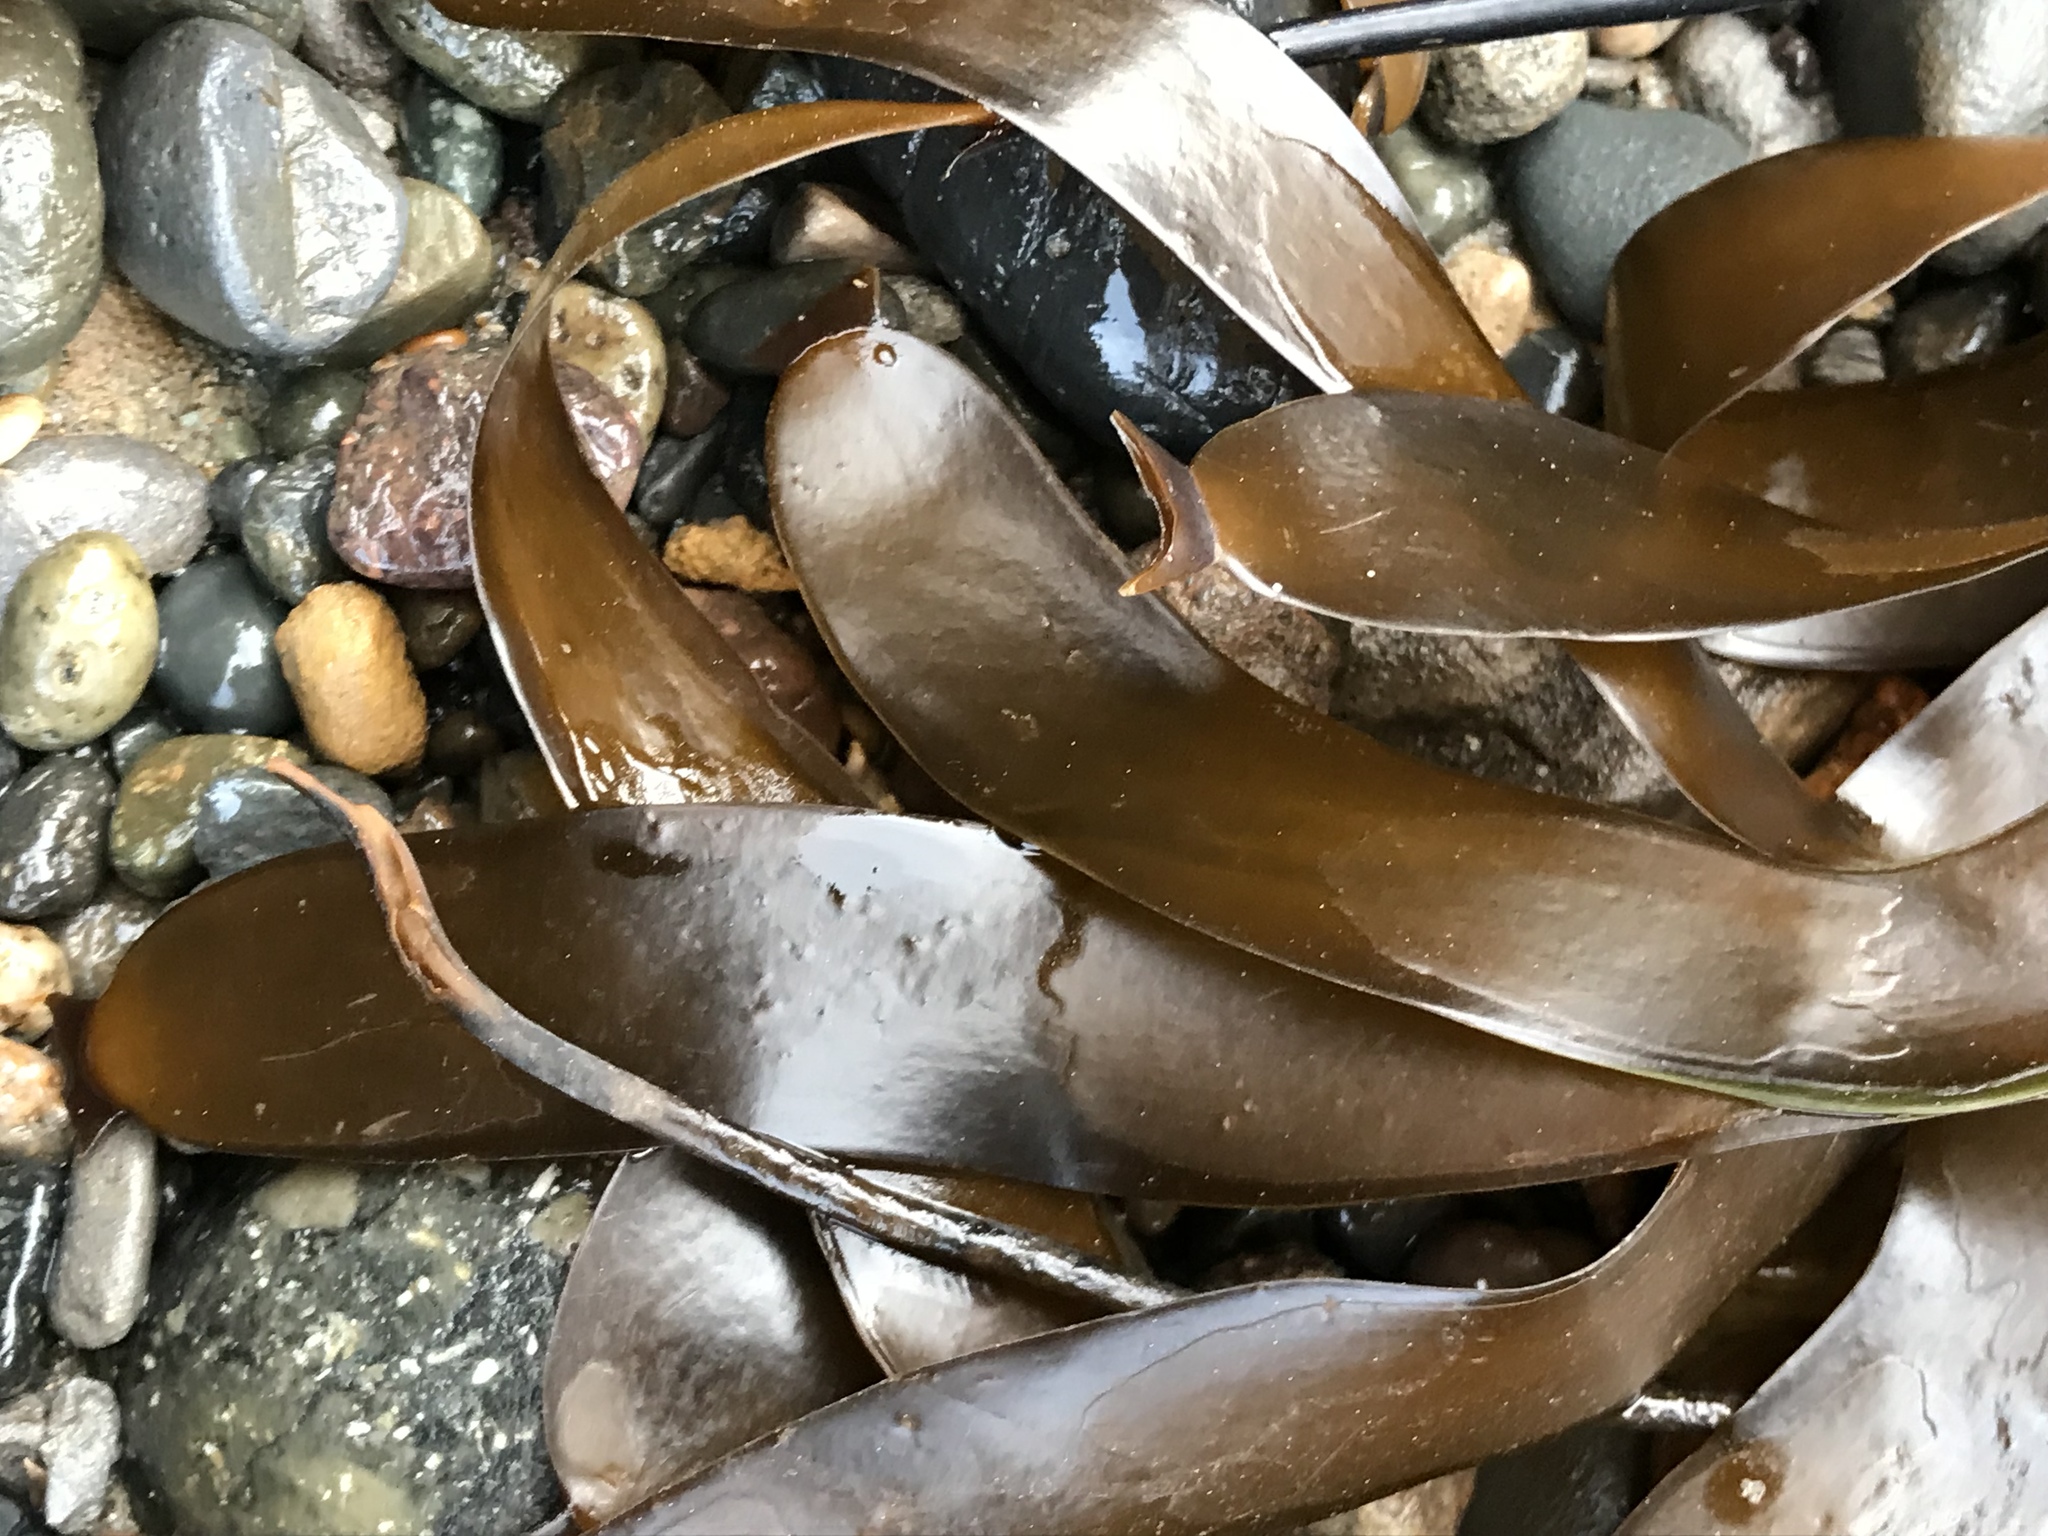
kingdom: Chromista
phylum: Ochrophyta
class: Phaeophyceae
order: Laminariales
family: Laminariaceae
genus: Laminaria
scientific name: Laminaria sinclairii
